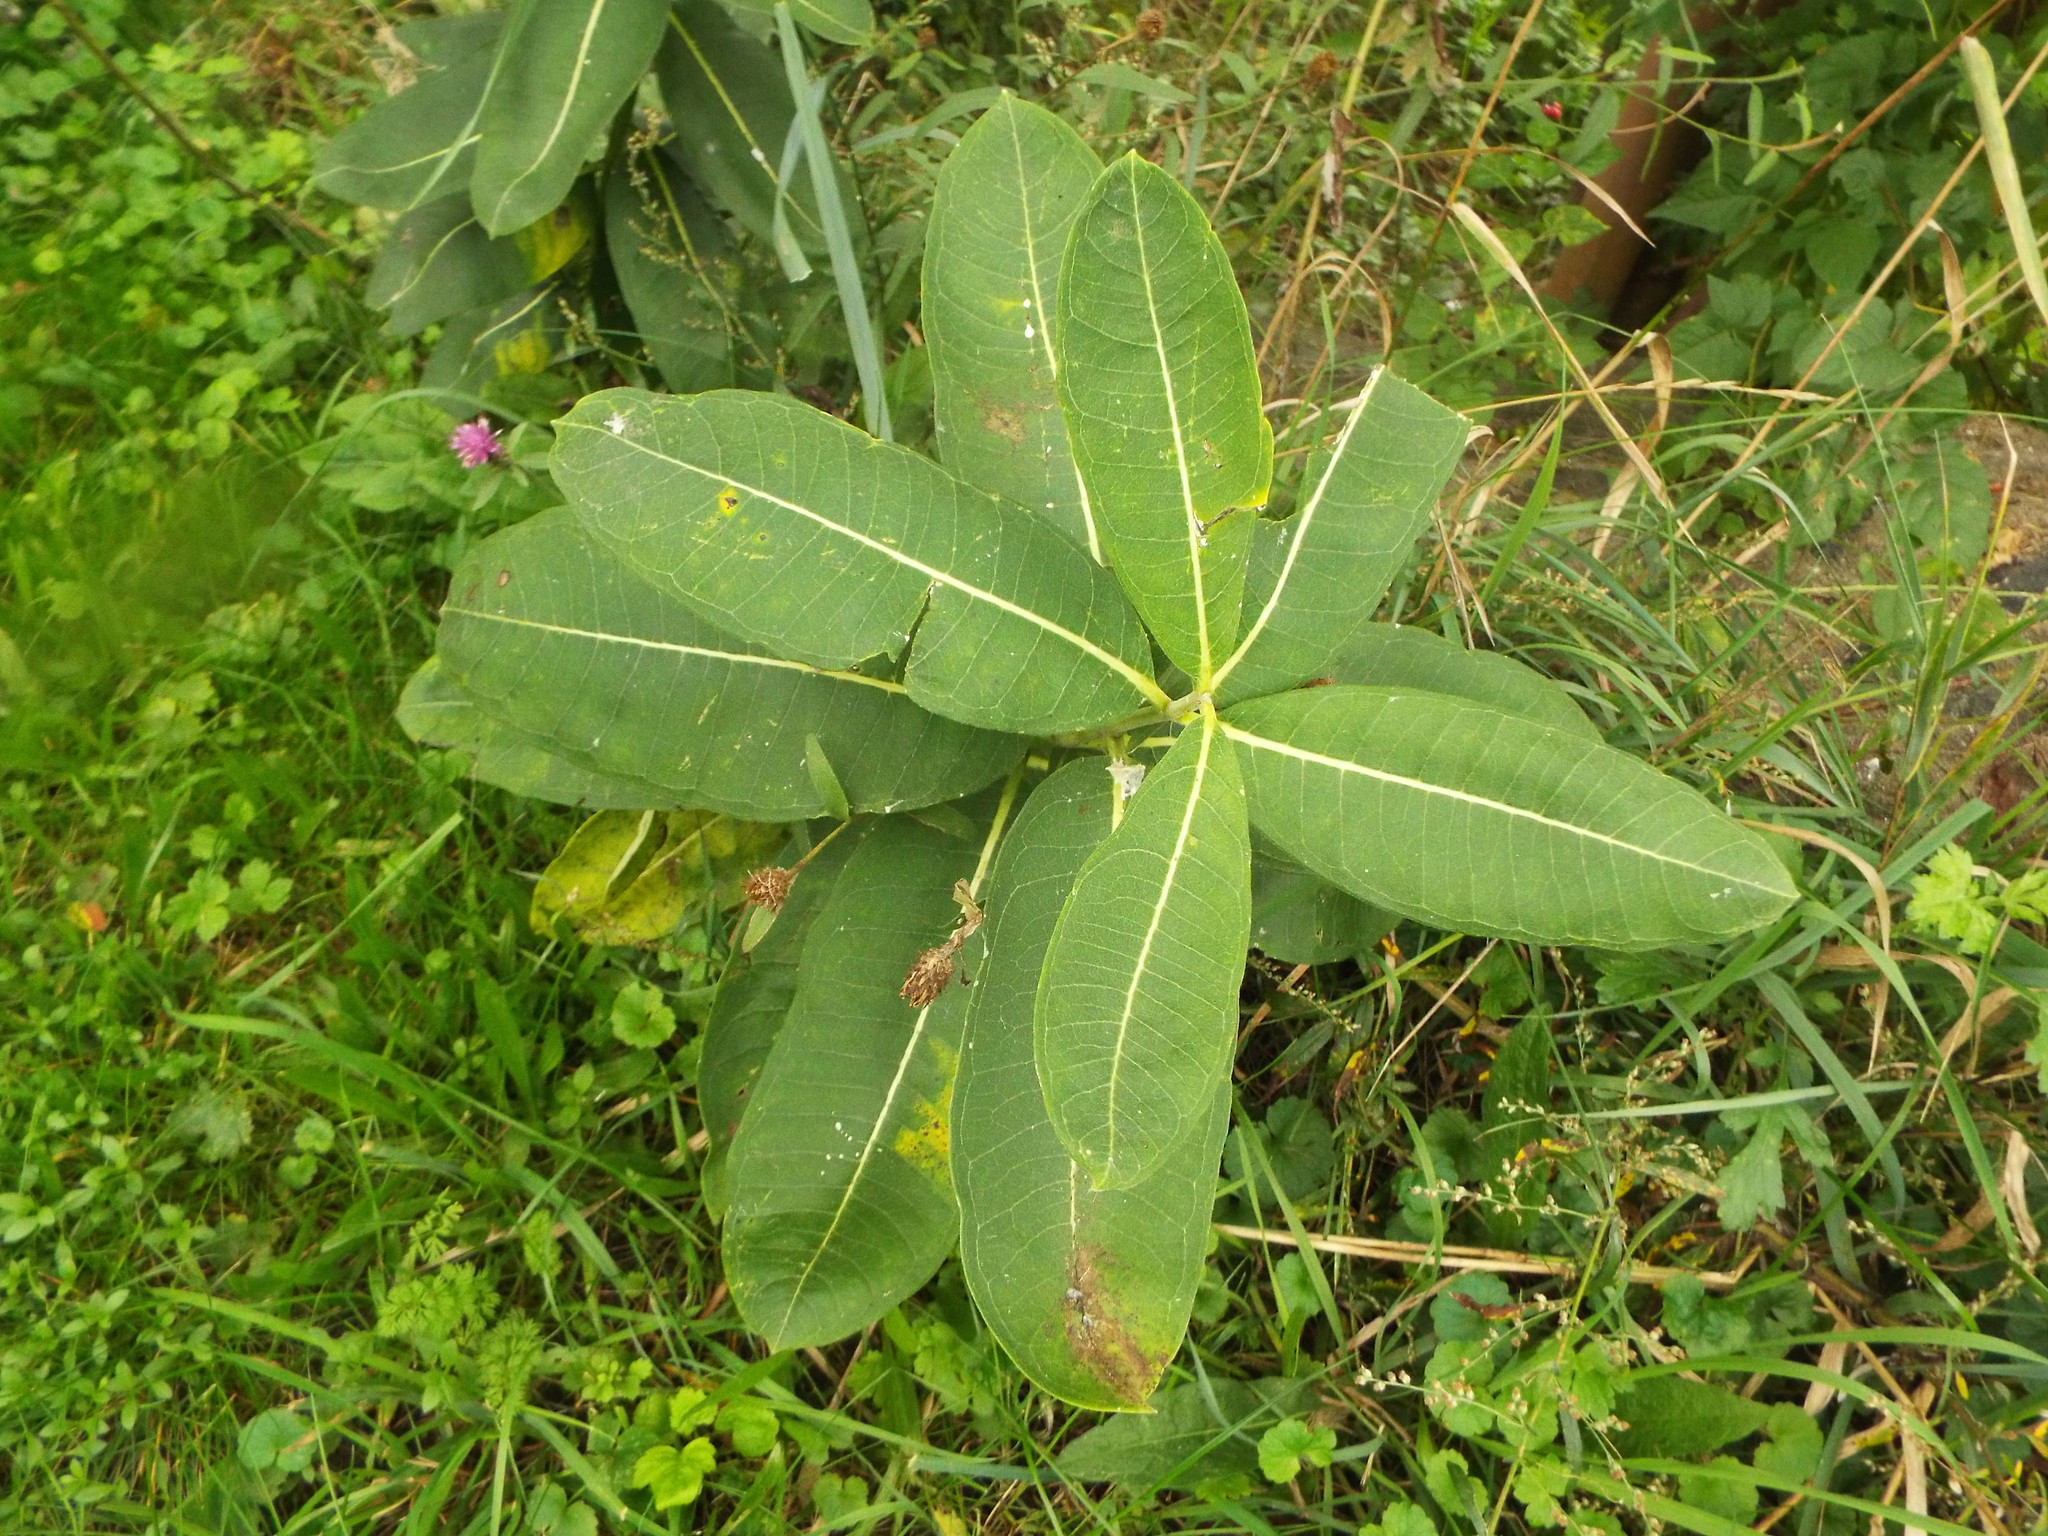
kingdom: Plantae
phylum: Tracheophyta
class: Magnoliopsida
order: Gentianales
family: Apocynaceae
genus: Asclepias
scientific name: Asclepias syriaca
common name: Common milkweed
